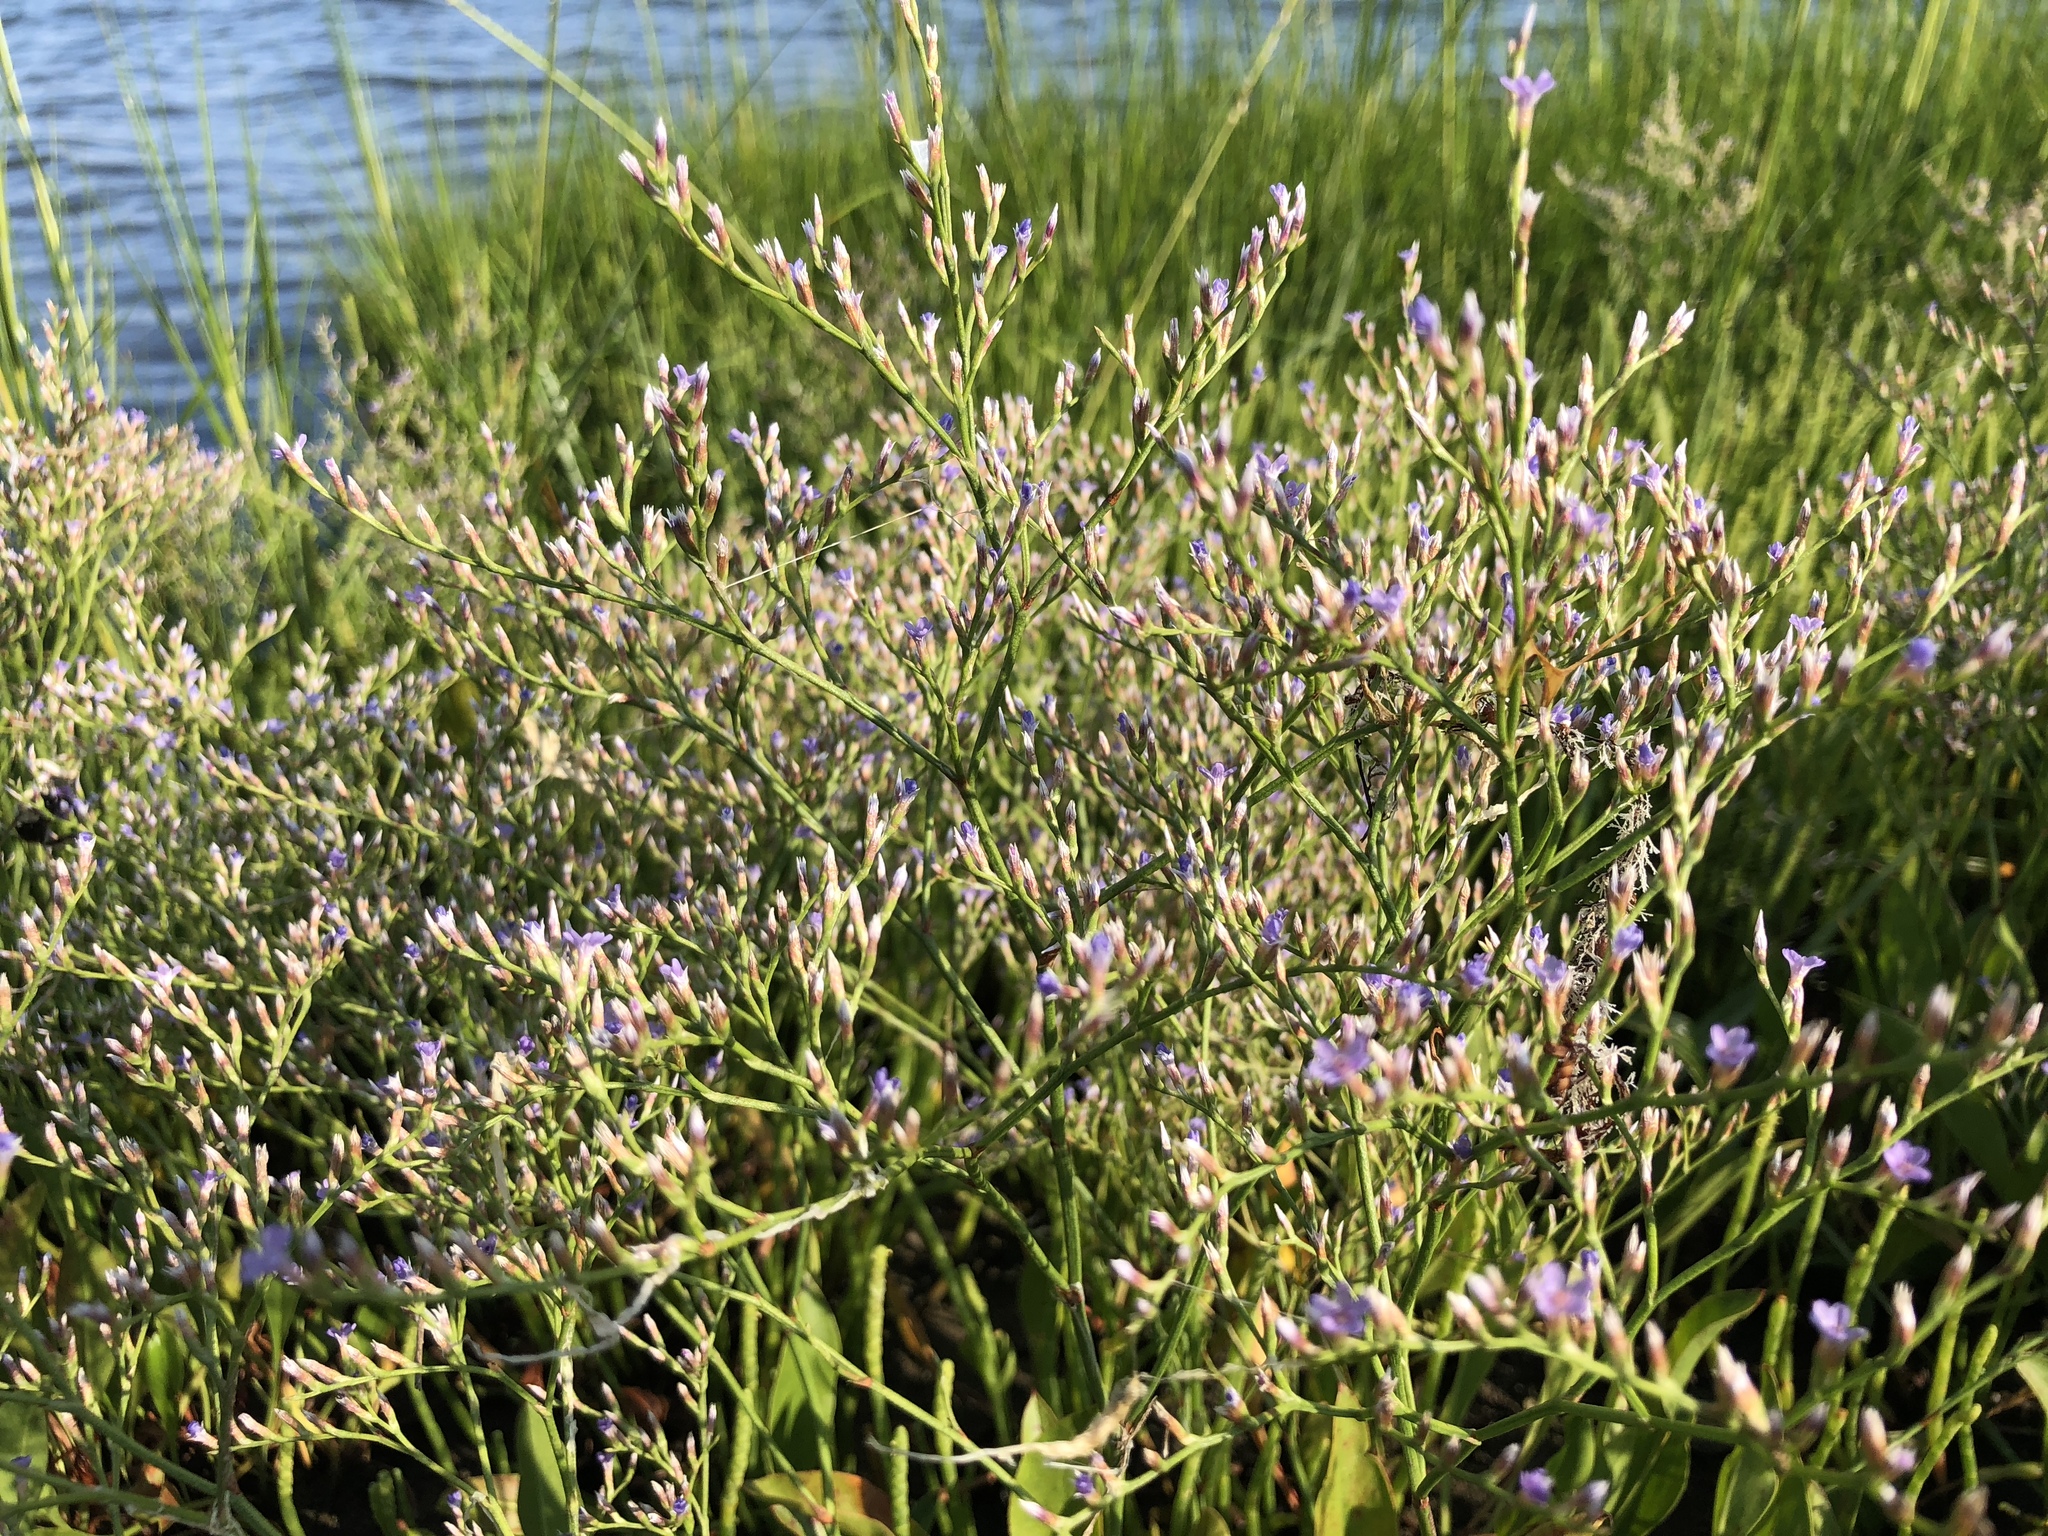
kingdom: Plantae
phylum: Tracheophyta
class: Magnoliopsida
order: Caryophyllales
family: Plumbaginaceae
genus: Limonium
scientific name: Limonium carolinianum
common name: Carolina sea lavender
